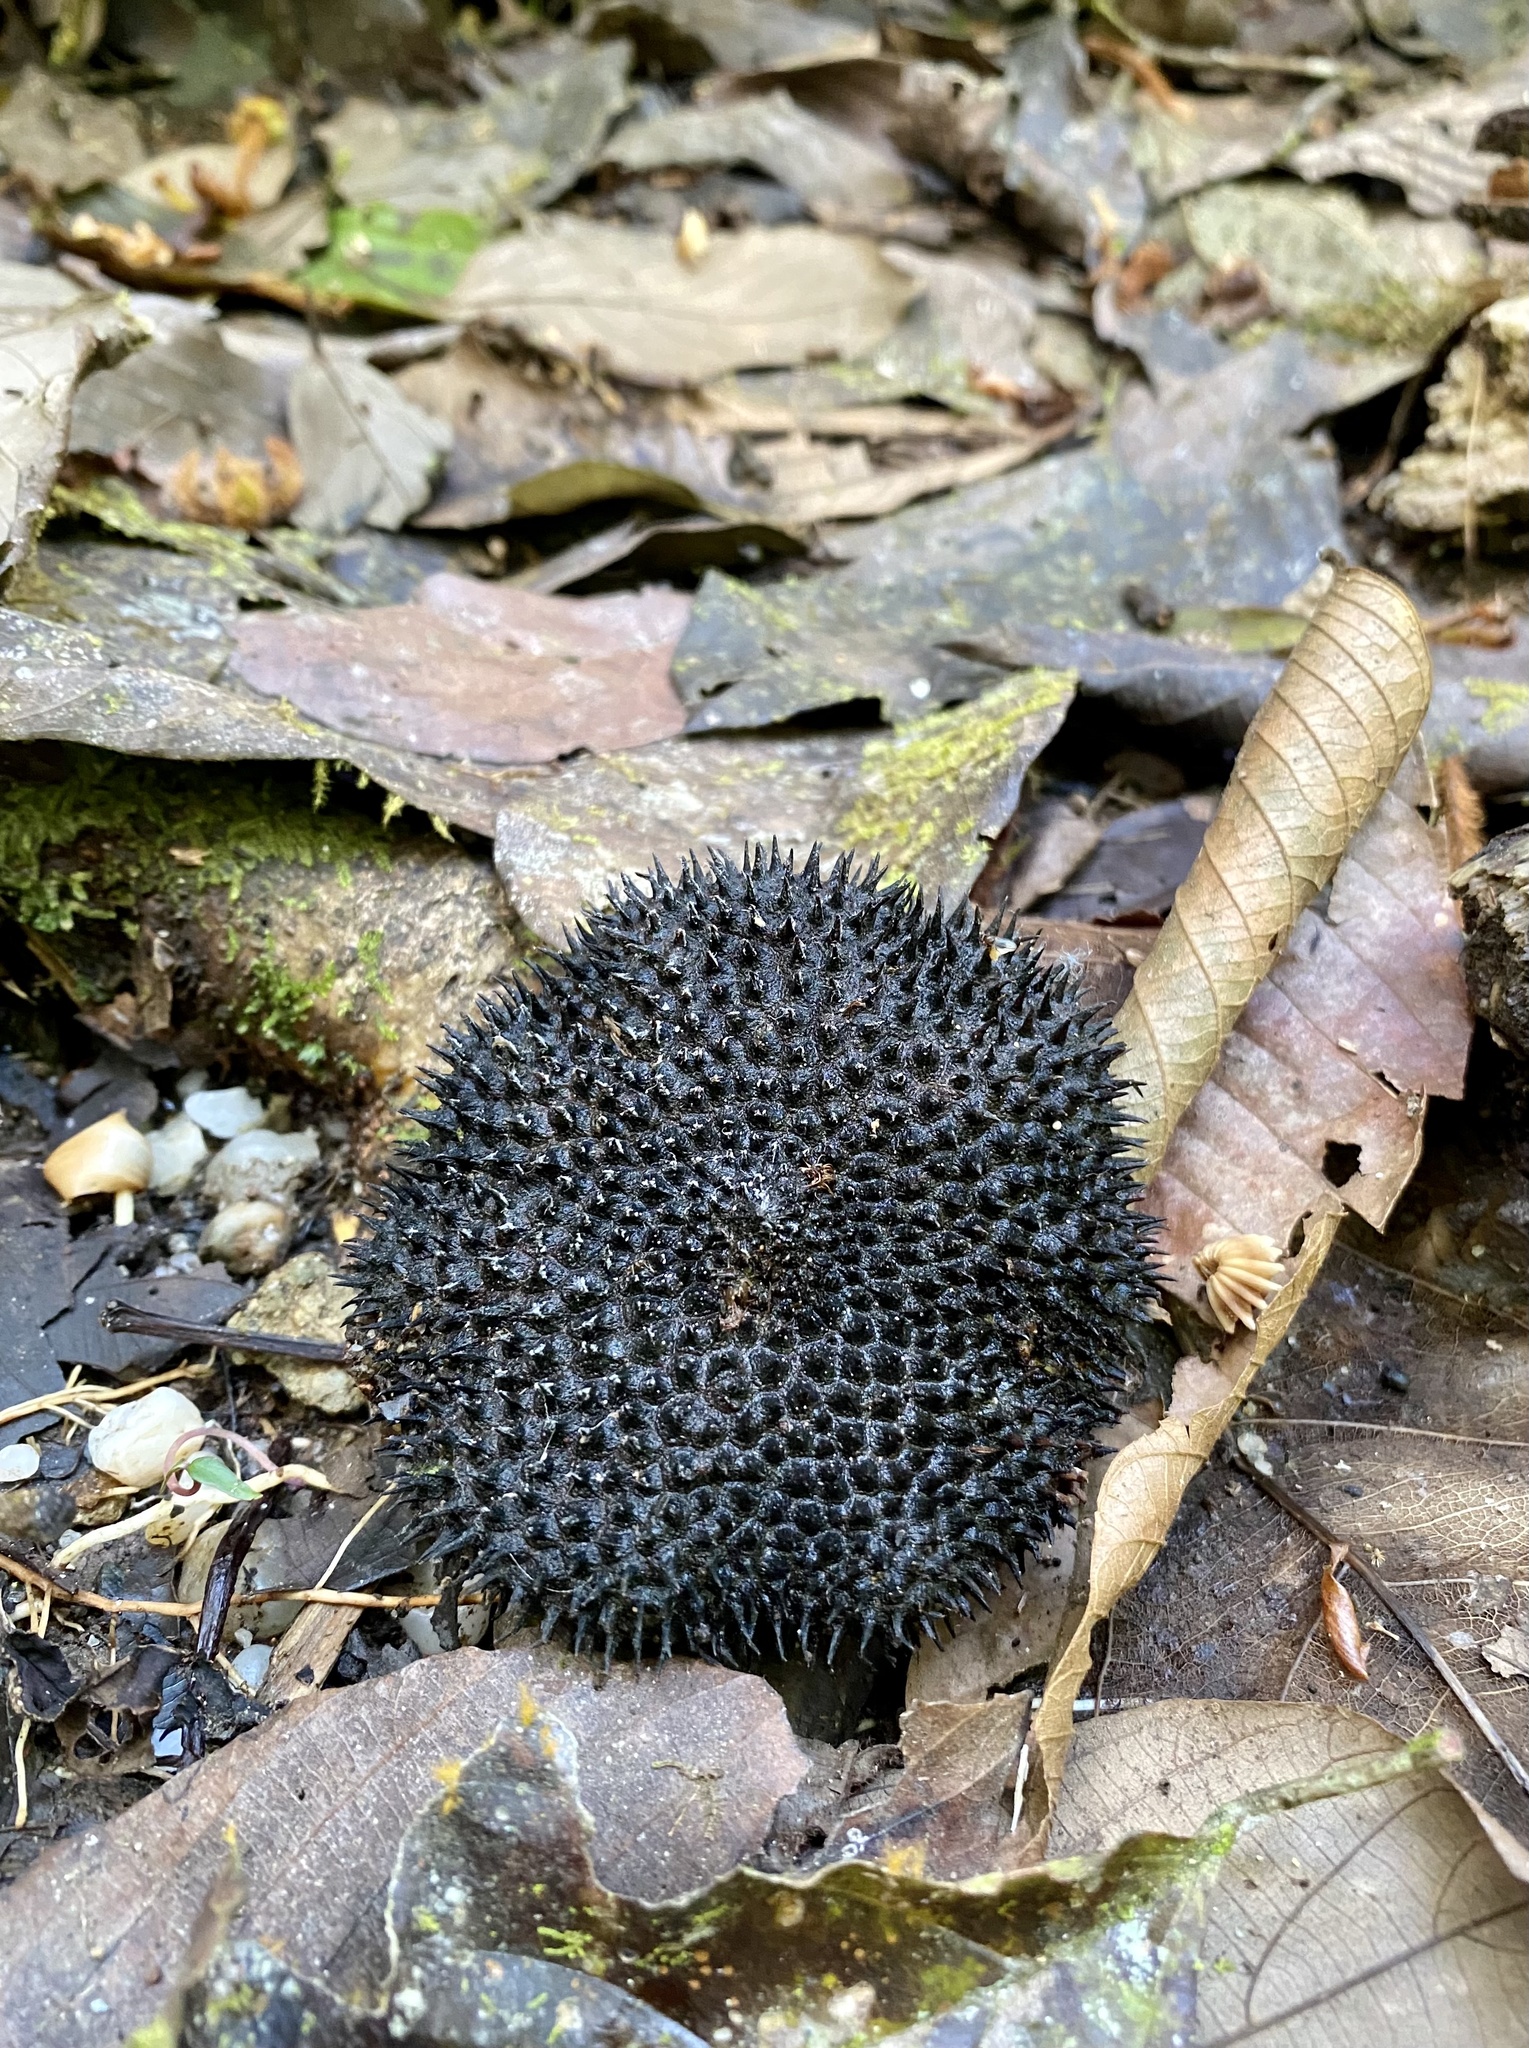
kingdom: Plantae
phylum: Tracheophyta
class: Magnoliopsida
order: Malvales
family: Malvaceae
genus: Apeiba
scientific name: Apeiba membranacea
